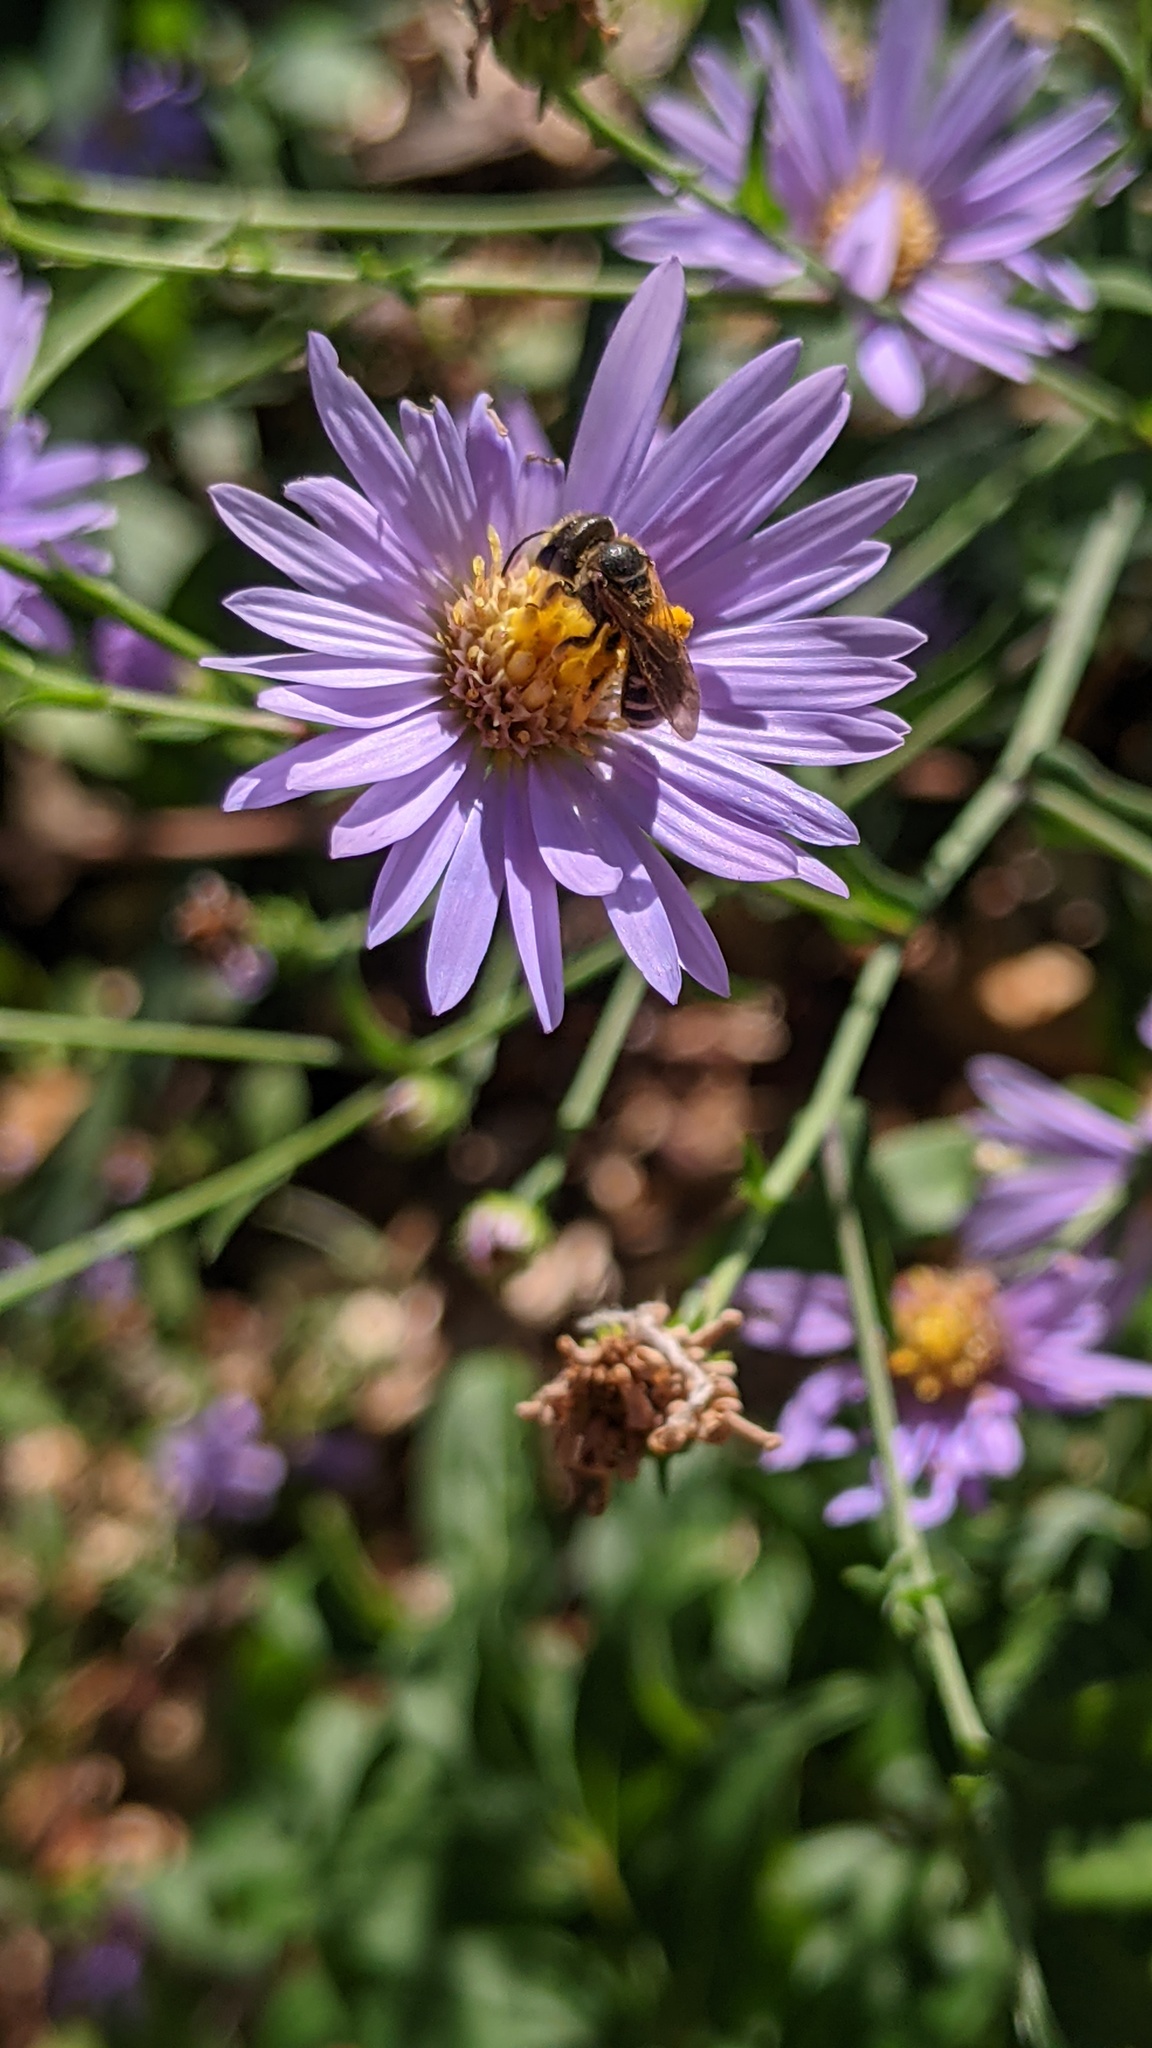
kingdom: Animalia
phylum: Arthropoda
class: Insecta
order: Hymenoptera
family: Halictidae
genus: Halictus
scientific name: Halictus ligatus
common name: Ligated furrow bee
